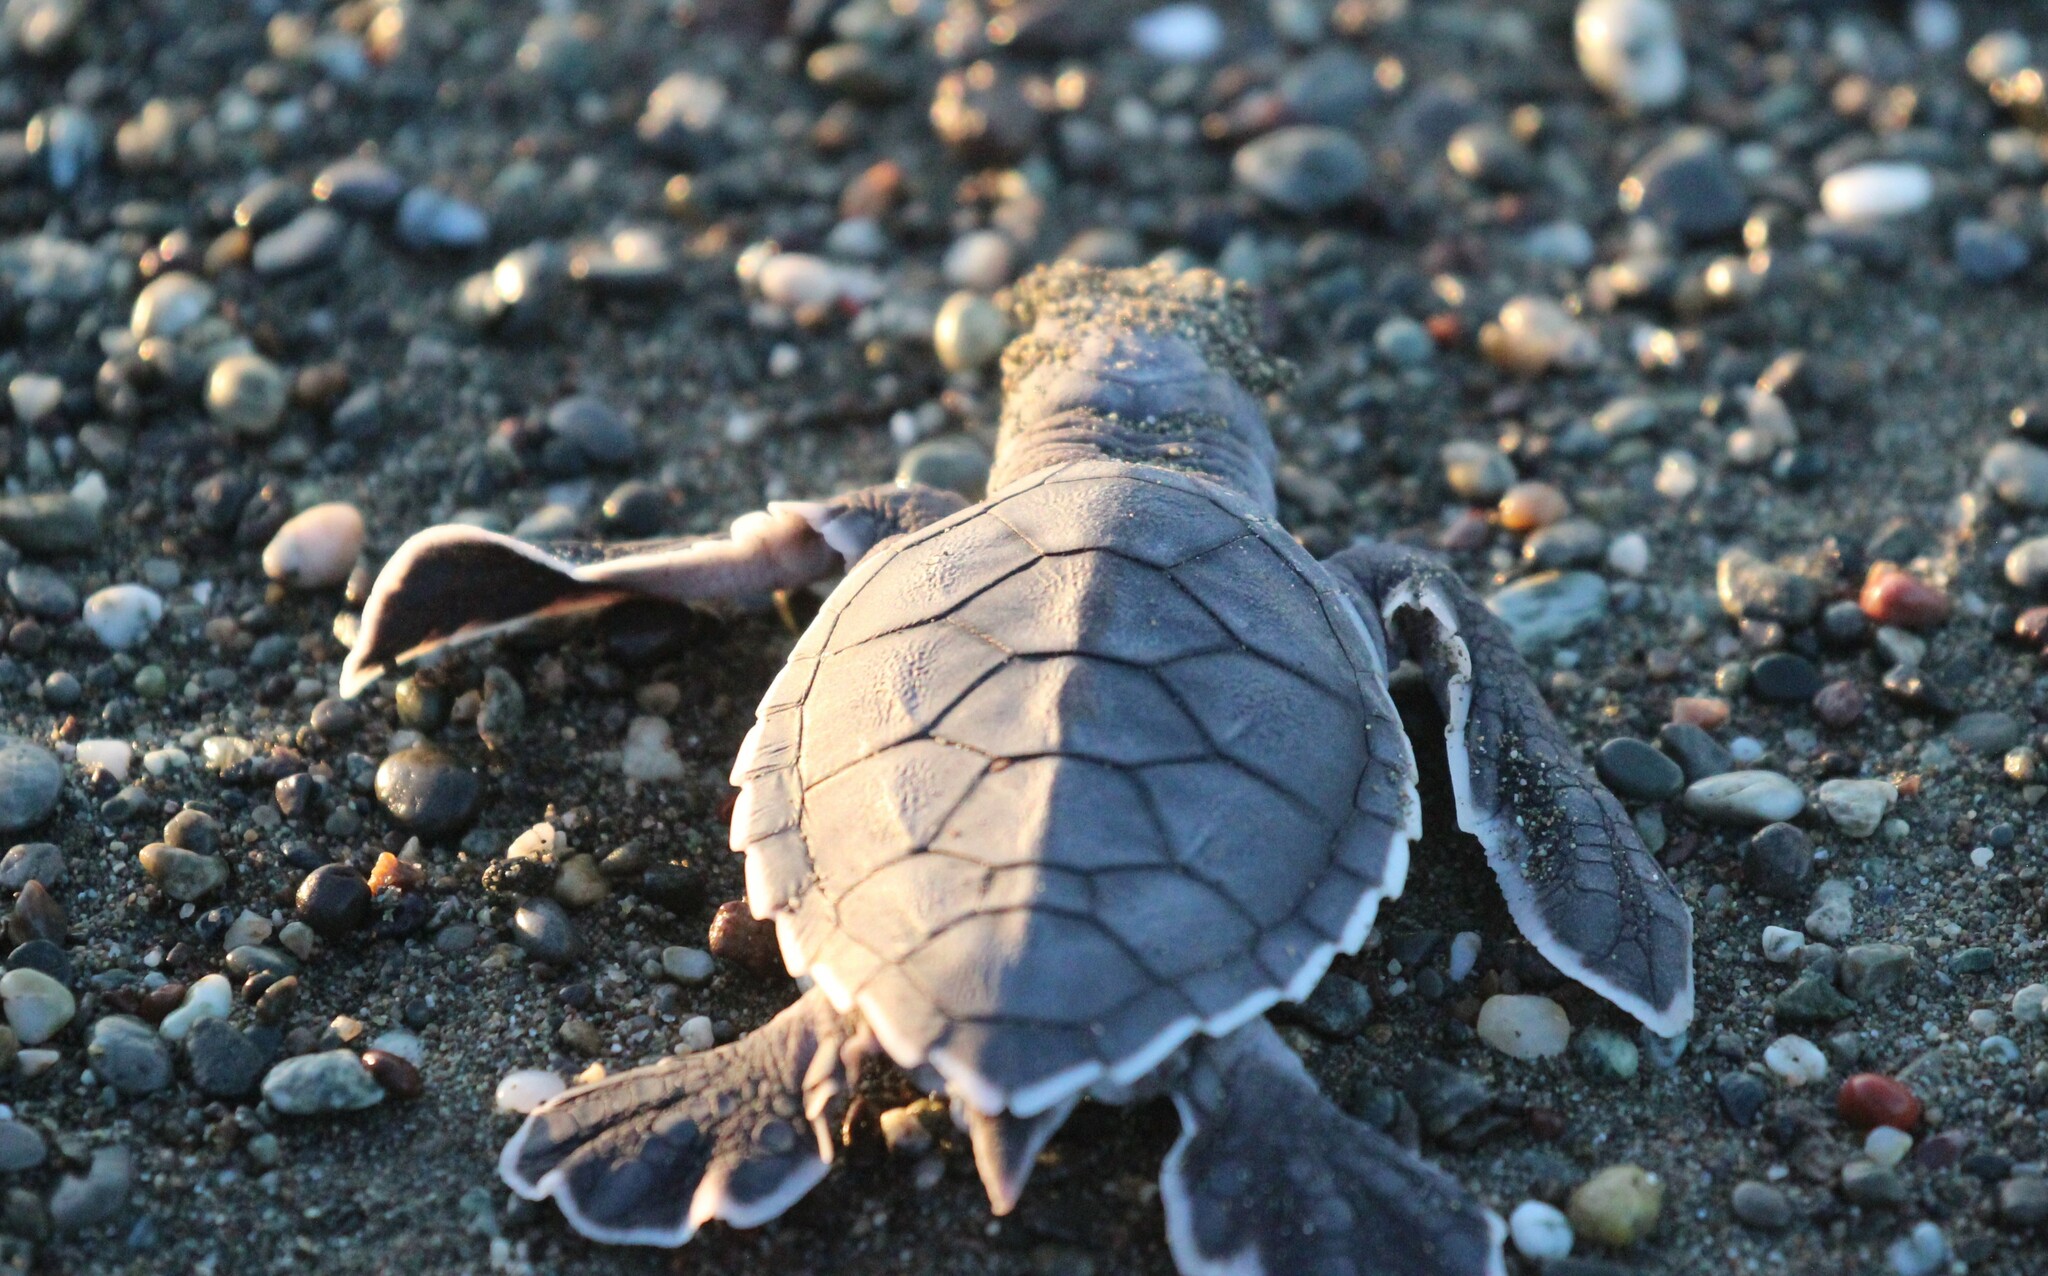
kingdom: Animalia
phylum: Chordata
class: Testudines
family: Cheloniidae
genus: Chelonia
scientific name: Chelonia mydas
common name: Green turtle
